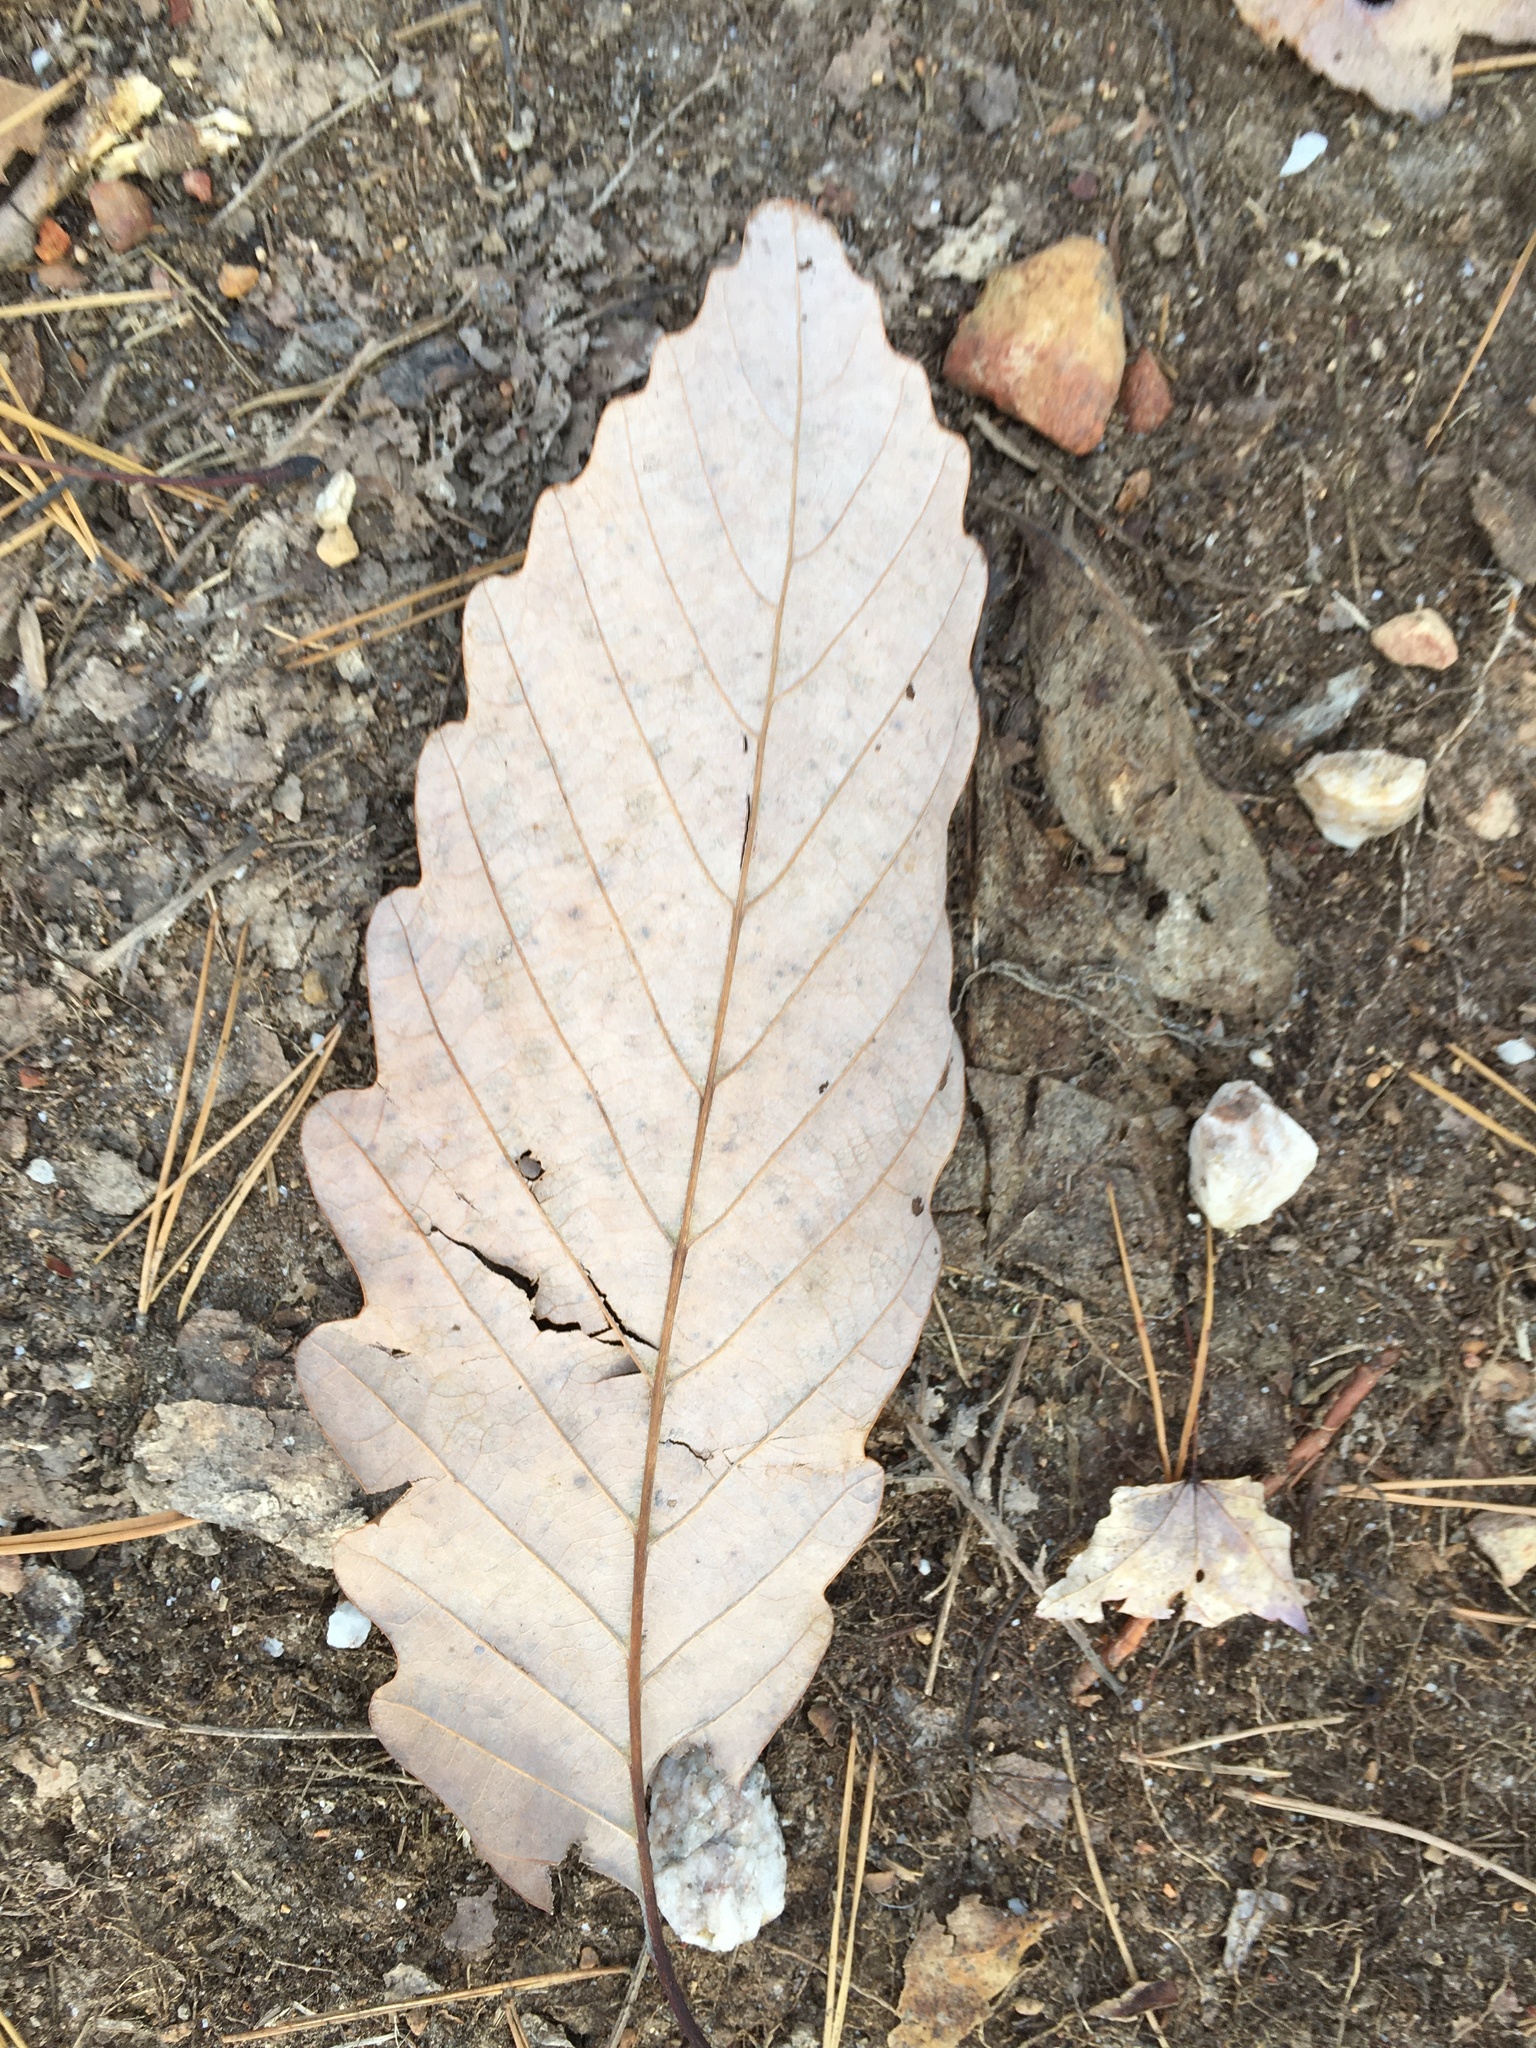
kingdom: Plantae
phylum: Tracheophyta
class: Magnoliopsida
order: Fagales
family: Fagaceae
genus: Quercus
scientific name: Quercus montana
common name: Chestnut oak
